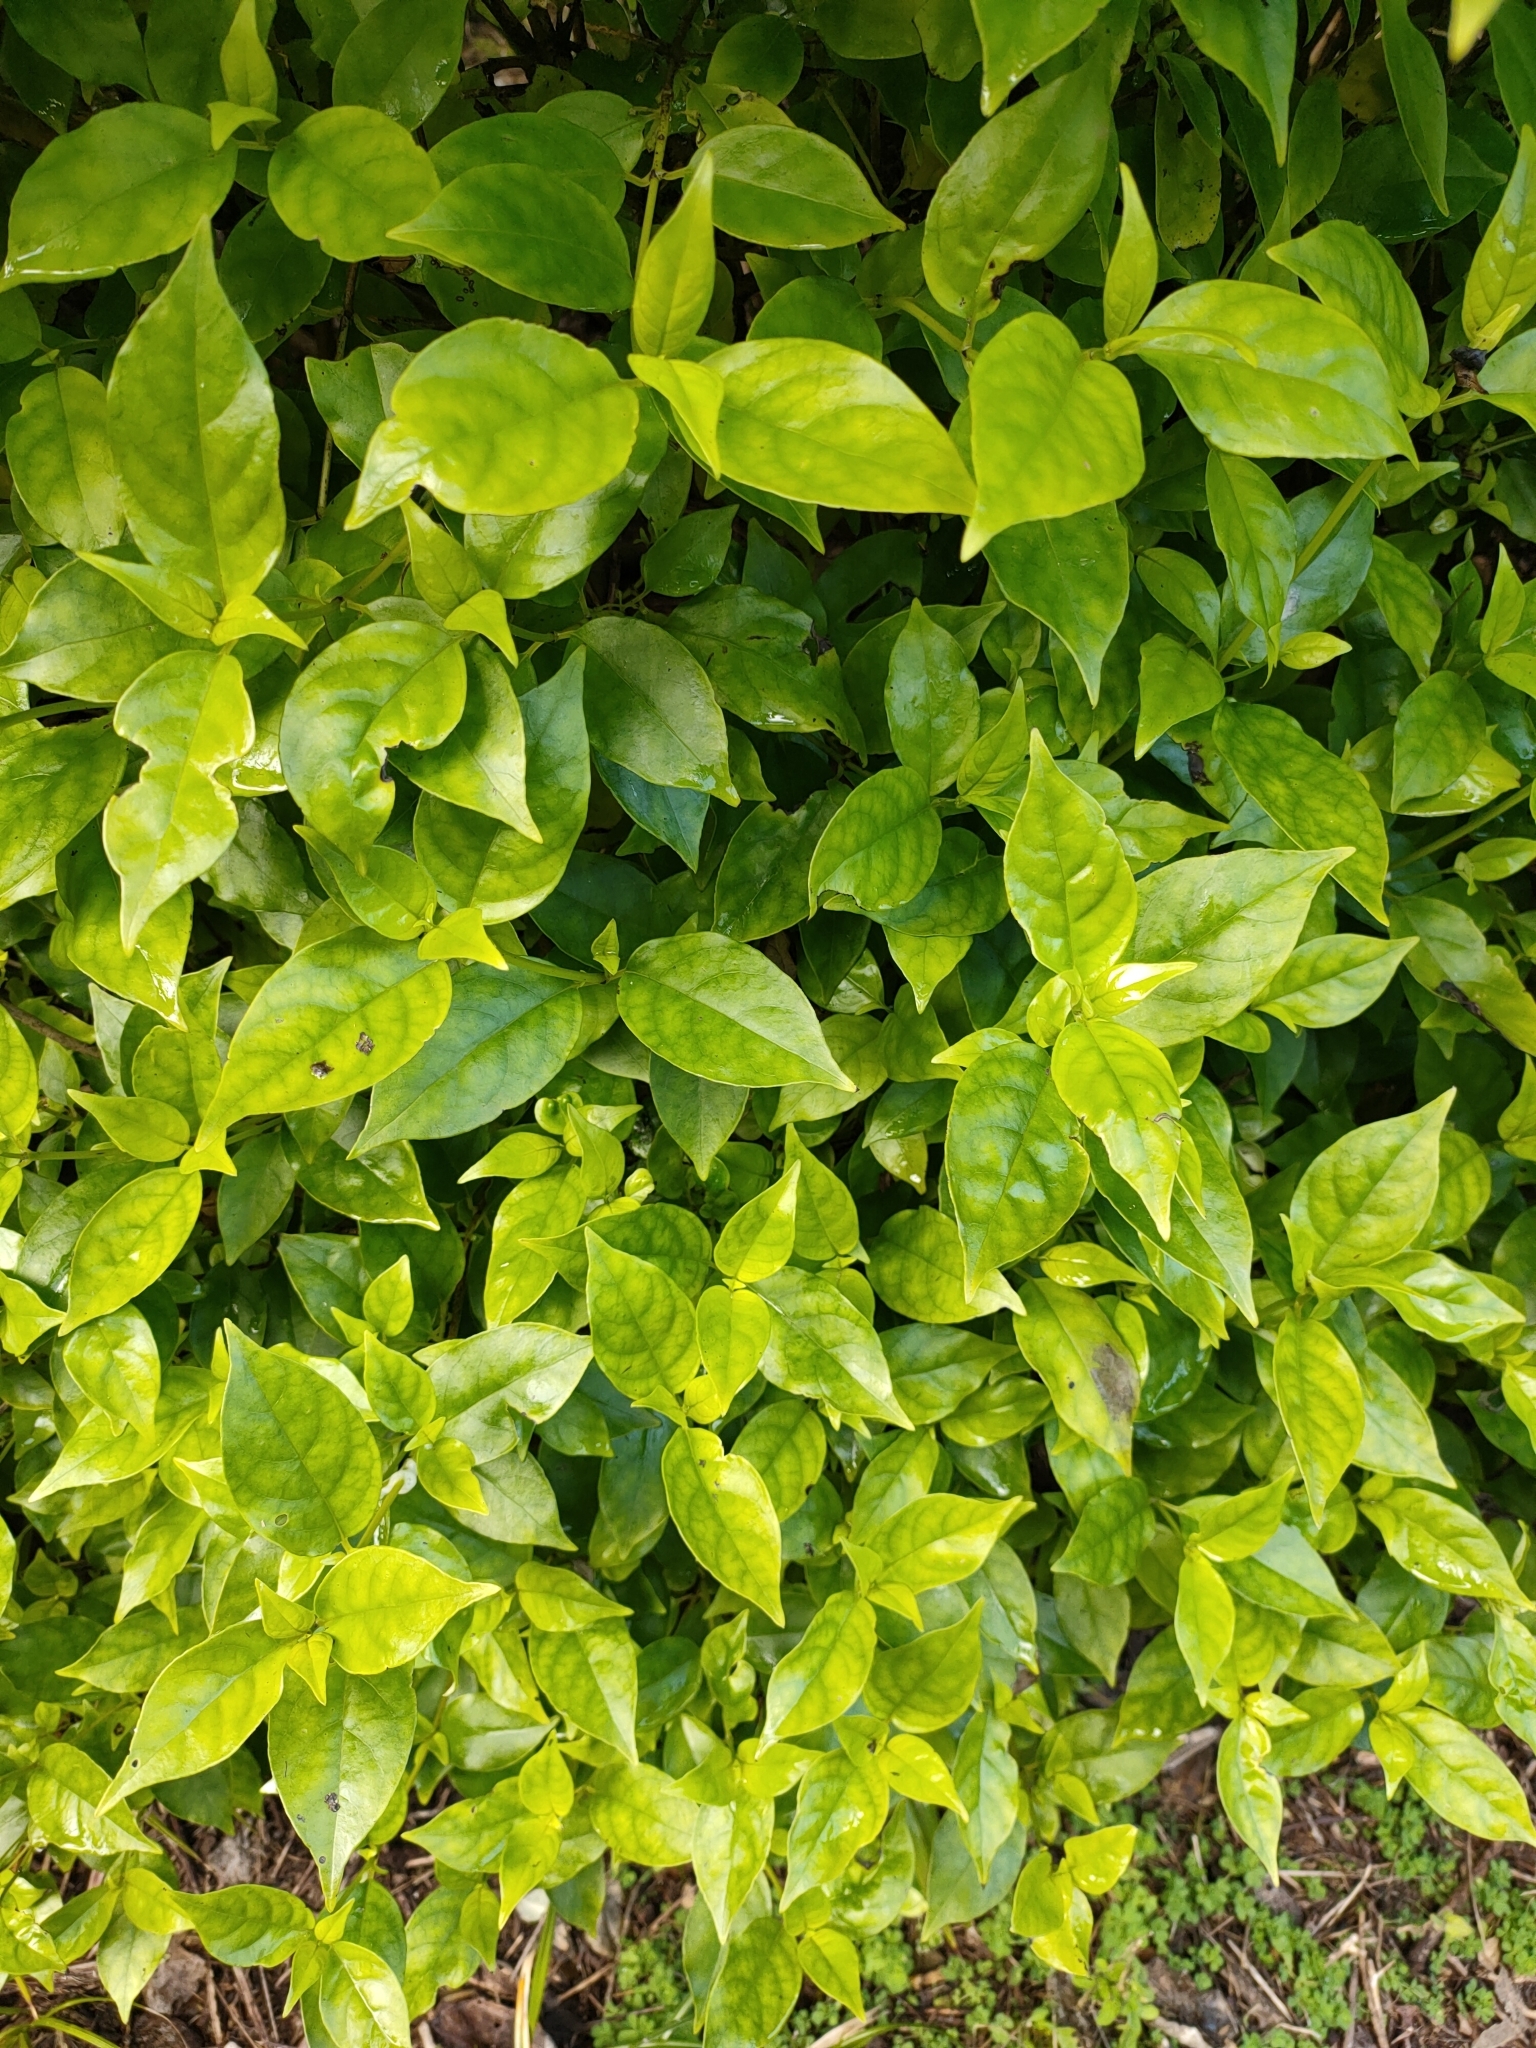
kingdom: Plantae
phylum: Tracheophyta
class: Magnoliopsida
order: Gentianales
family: Loganiaceae
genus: Geniostoma
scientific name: Geniostoma ligustrifolium
